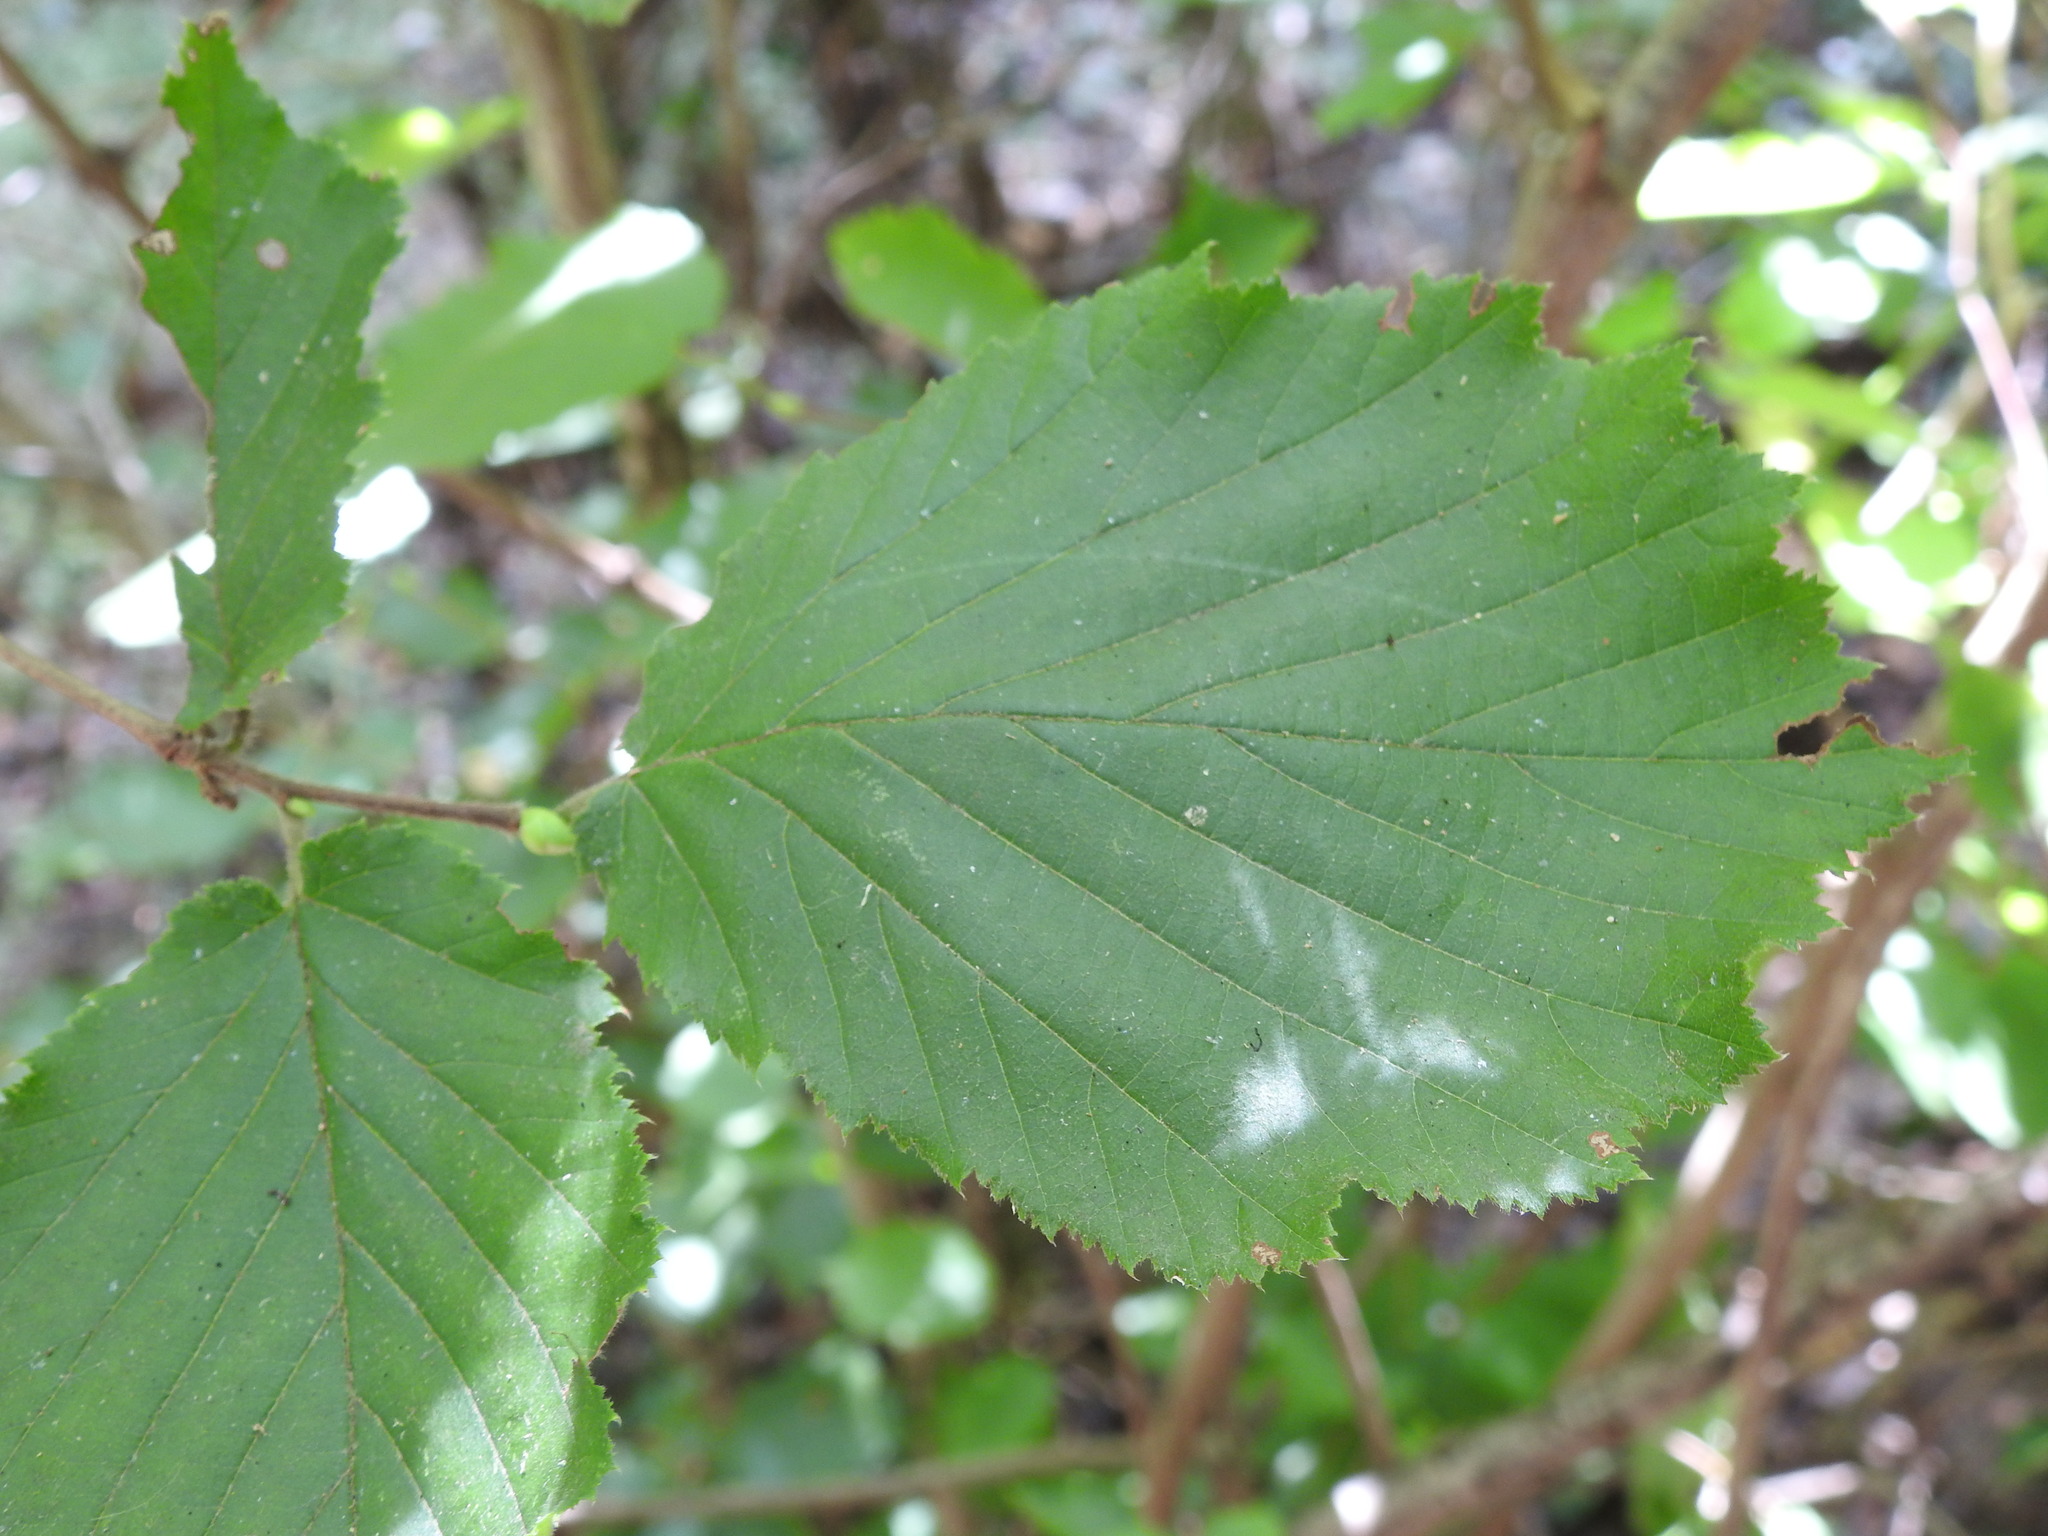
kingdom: Plantae
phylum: Tracheophyta
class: Magnoliopsida
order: Fagales
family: Betulaceae
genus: Corylus
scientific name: Corylus avellana
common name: European hazel
